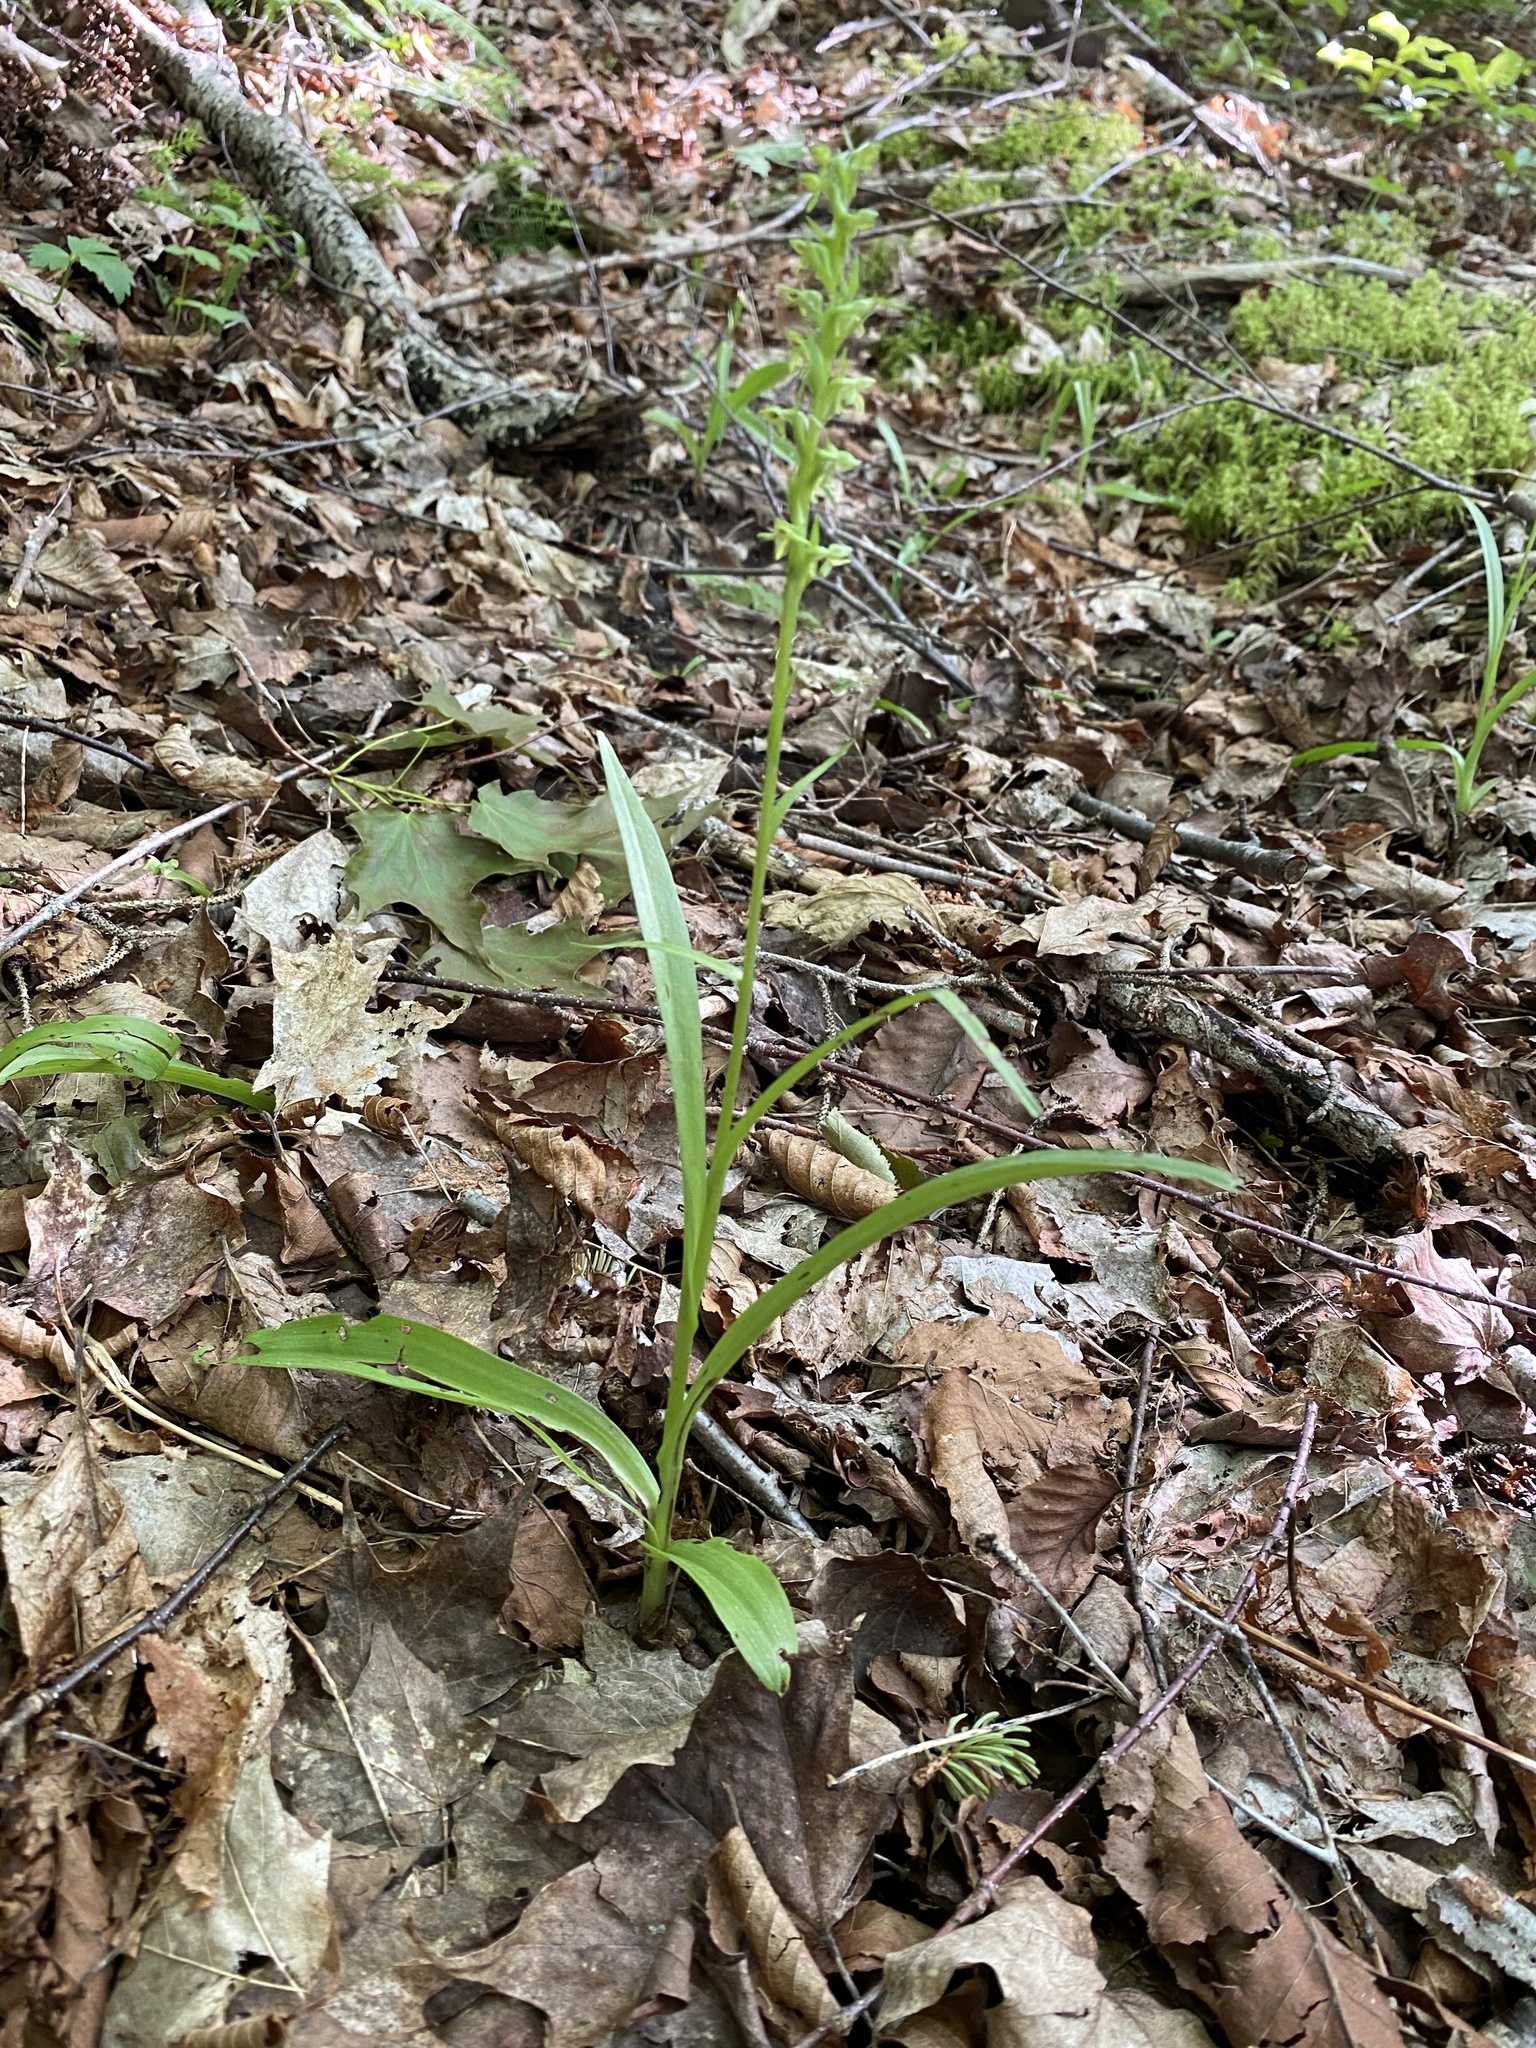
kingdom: Plantae
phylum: Tracheophyta
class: Liliopsida
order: Asparagales
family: Orchidaceae
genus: Platanthera
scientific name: Platanthera aquilonis
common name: Northern green orchid
